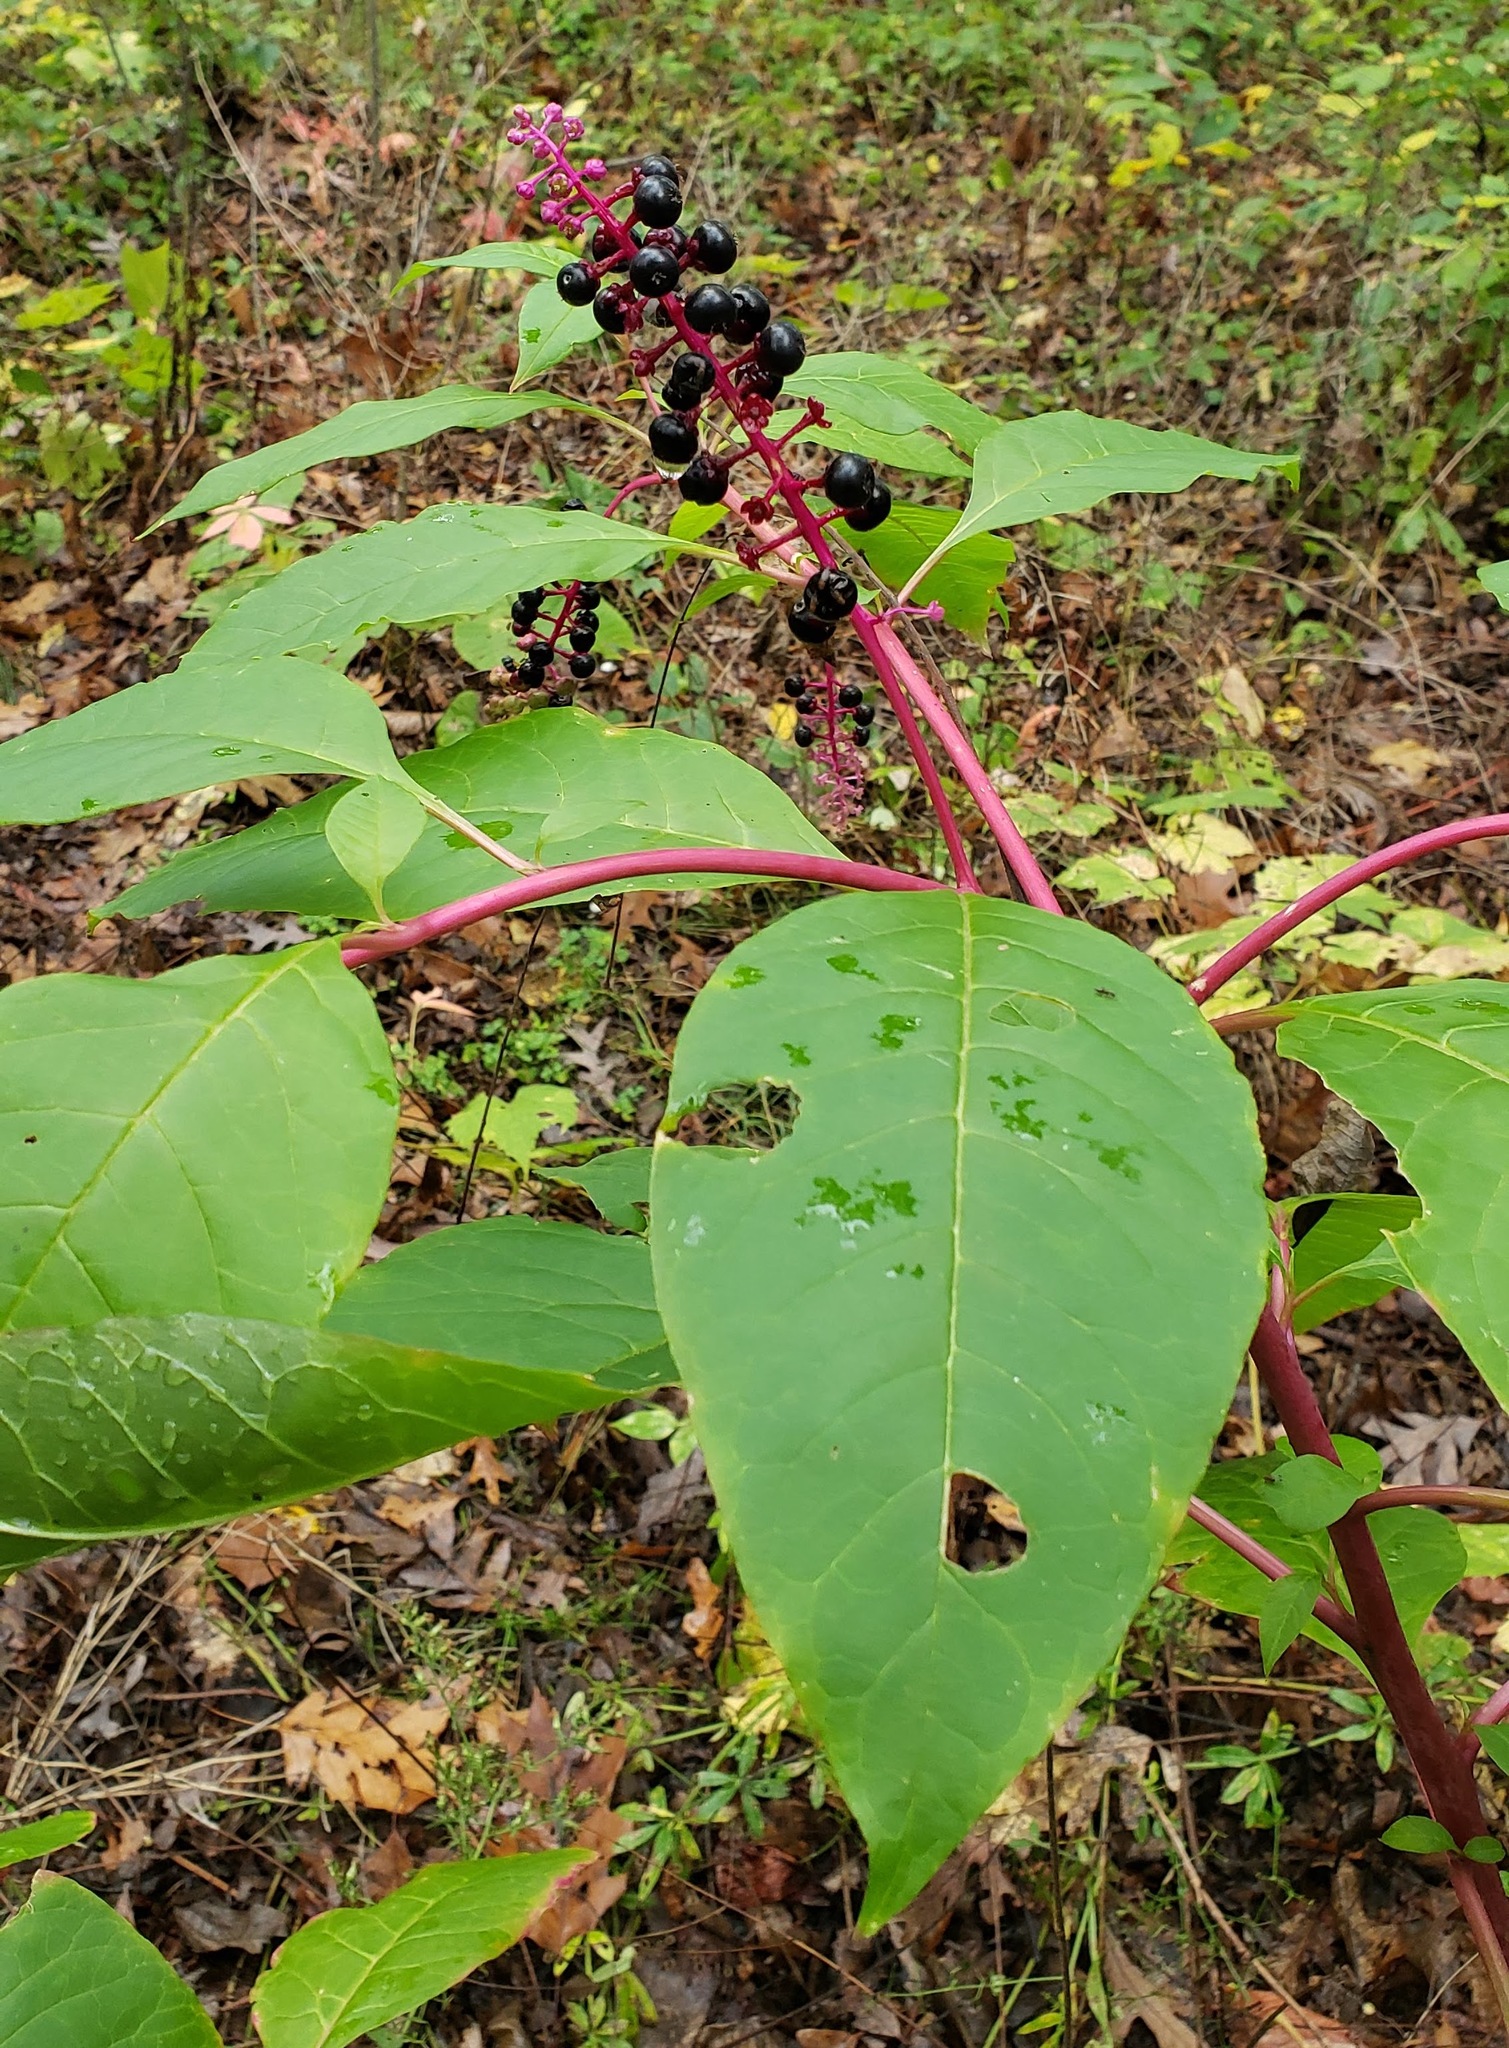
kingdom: Plantae
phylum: Tracheophyta
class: Magnoliopsida
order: Caryophyllales
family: Phytolaccaceae
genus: Phytolacca
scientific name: Phytolacca americana
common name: American pokeweed
